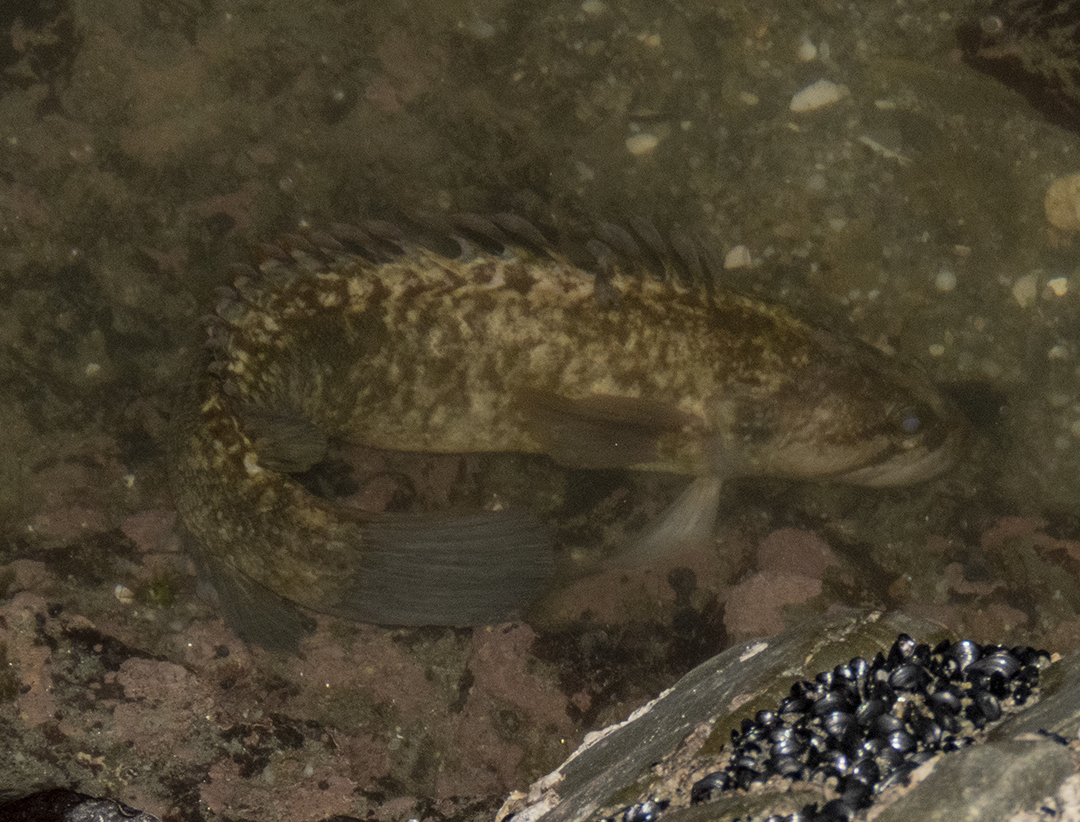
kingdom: Animalia
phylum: Chordata
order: Perciformes
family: Plesiopidae
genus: Acanthoclinus
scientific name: Acanthoclinus fuscus
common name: Olive rockfish
